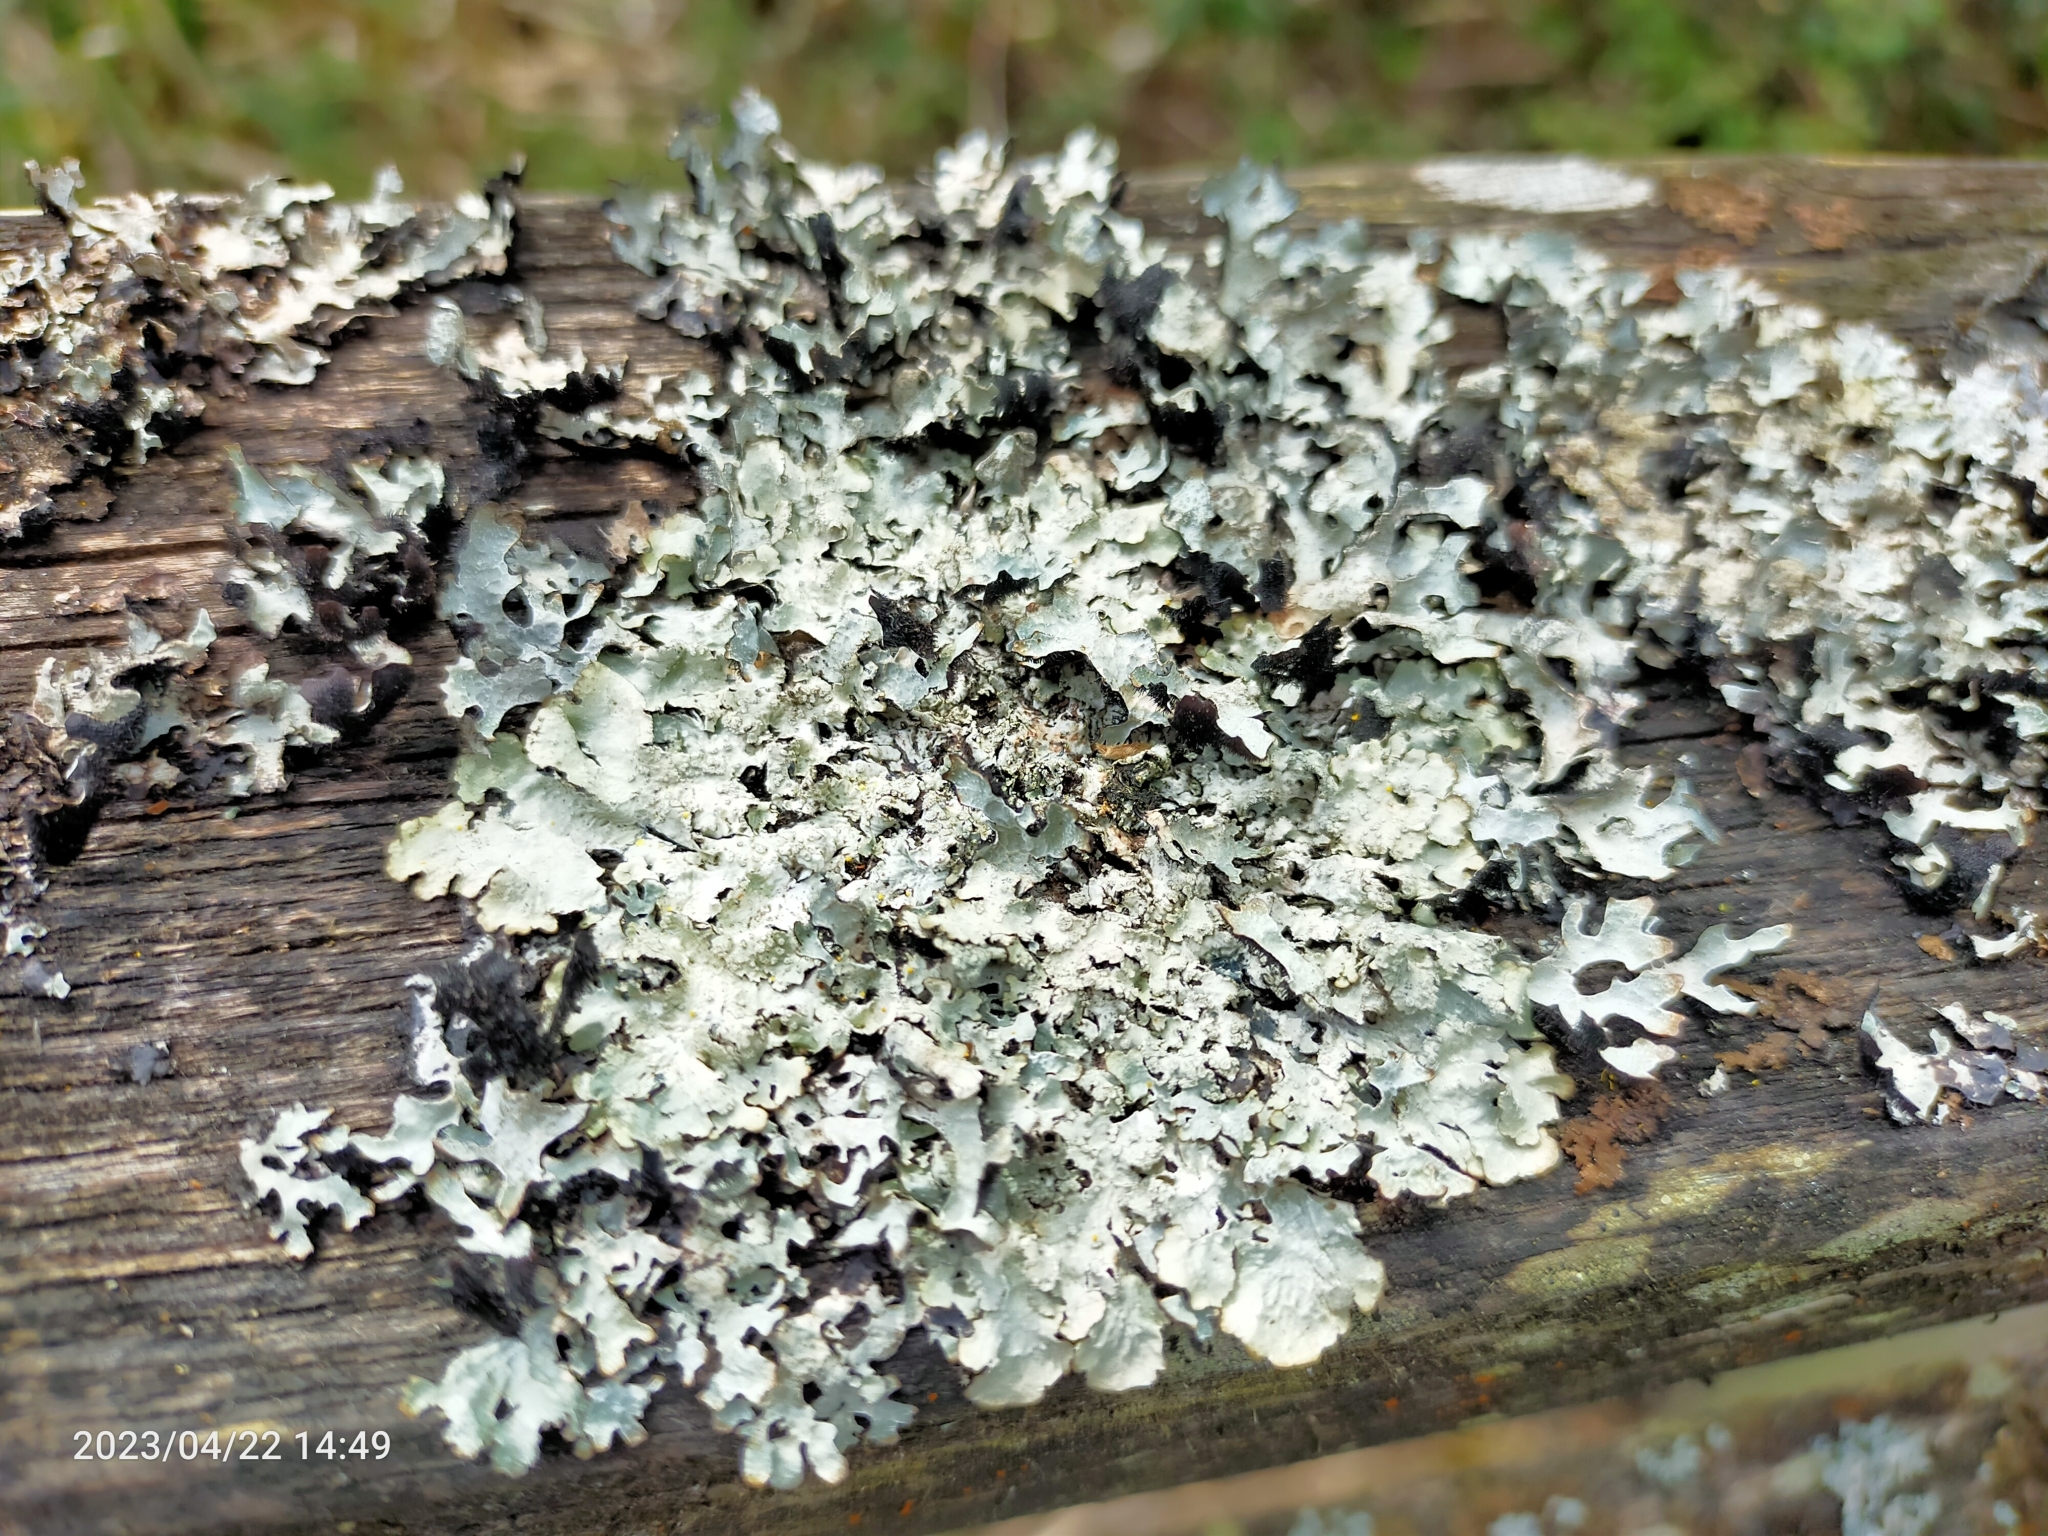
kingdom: Fungi
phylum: Ascomycota
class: Lecanoromycetes
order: Lecanorales
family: Parmeliaceae
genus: Parmelia
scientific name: Parmelia sulcata
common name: Netted shield lichen
